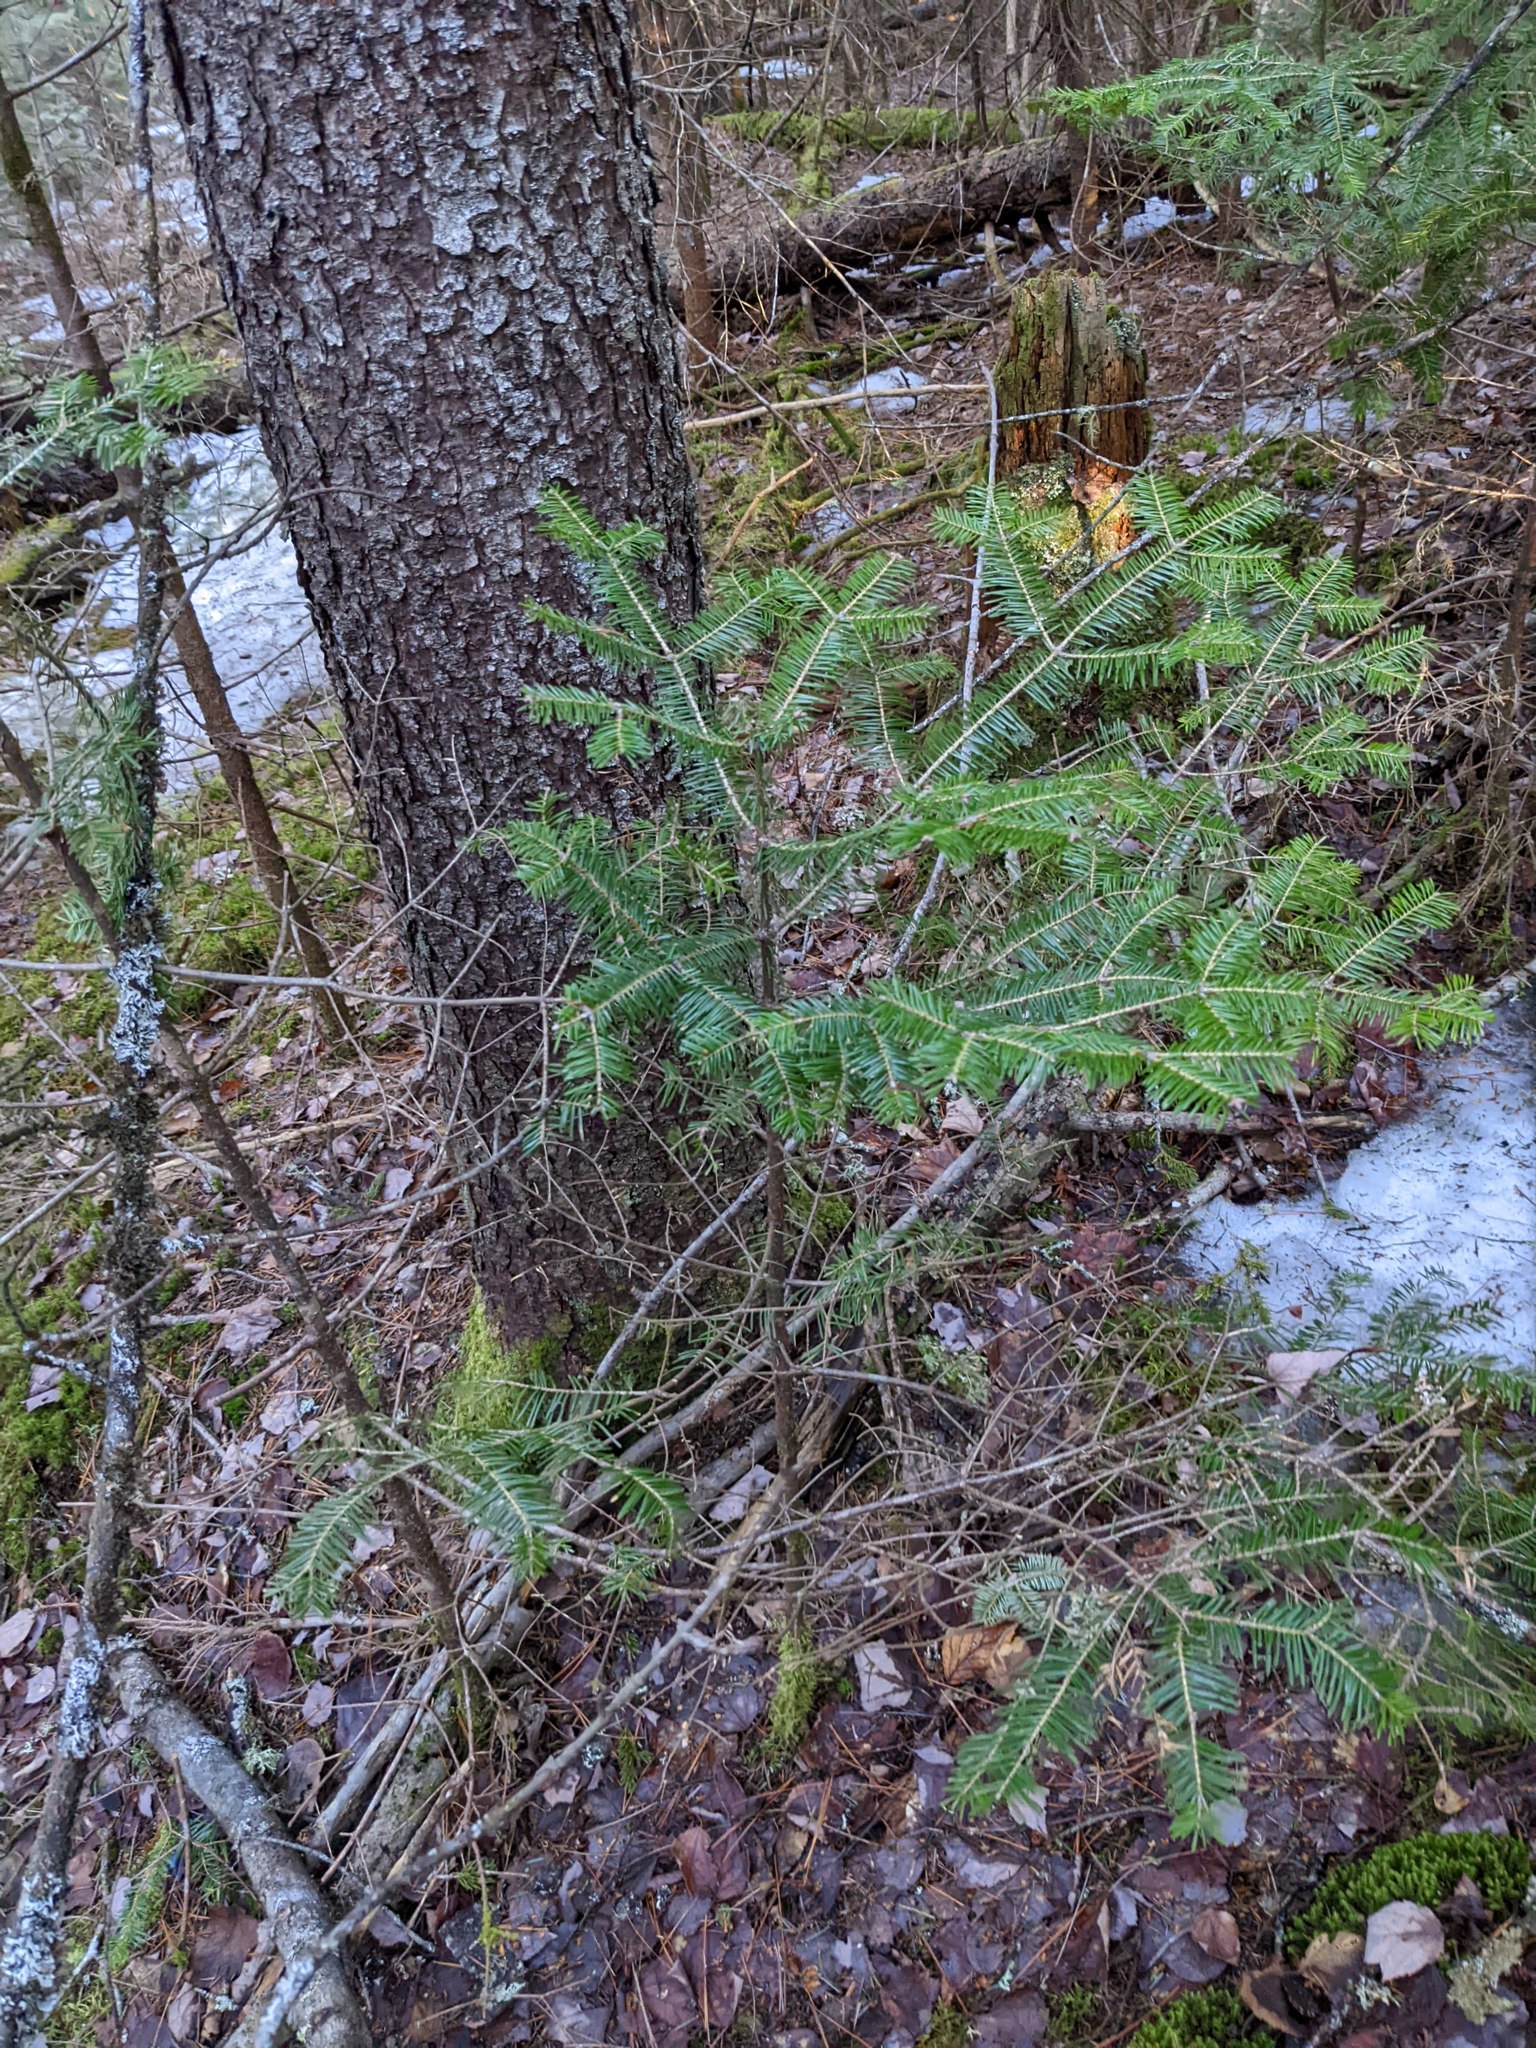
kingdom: Plantae
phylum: Tracheophyta
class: Pinopsida
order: Pinales
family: Pinaceae
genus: Abies
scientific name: Abies balsamea
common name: Balsam fir
